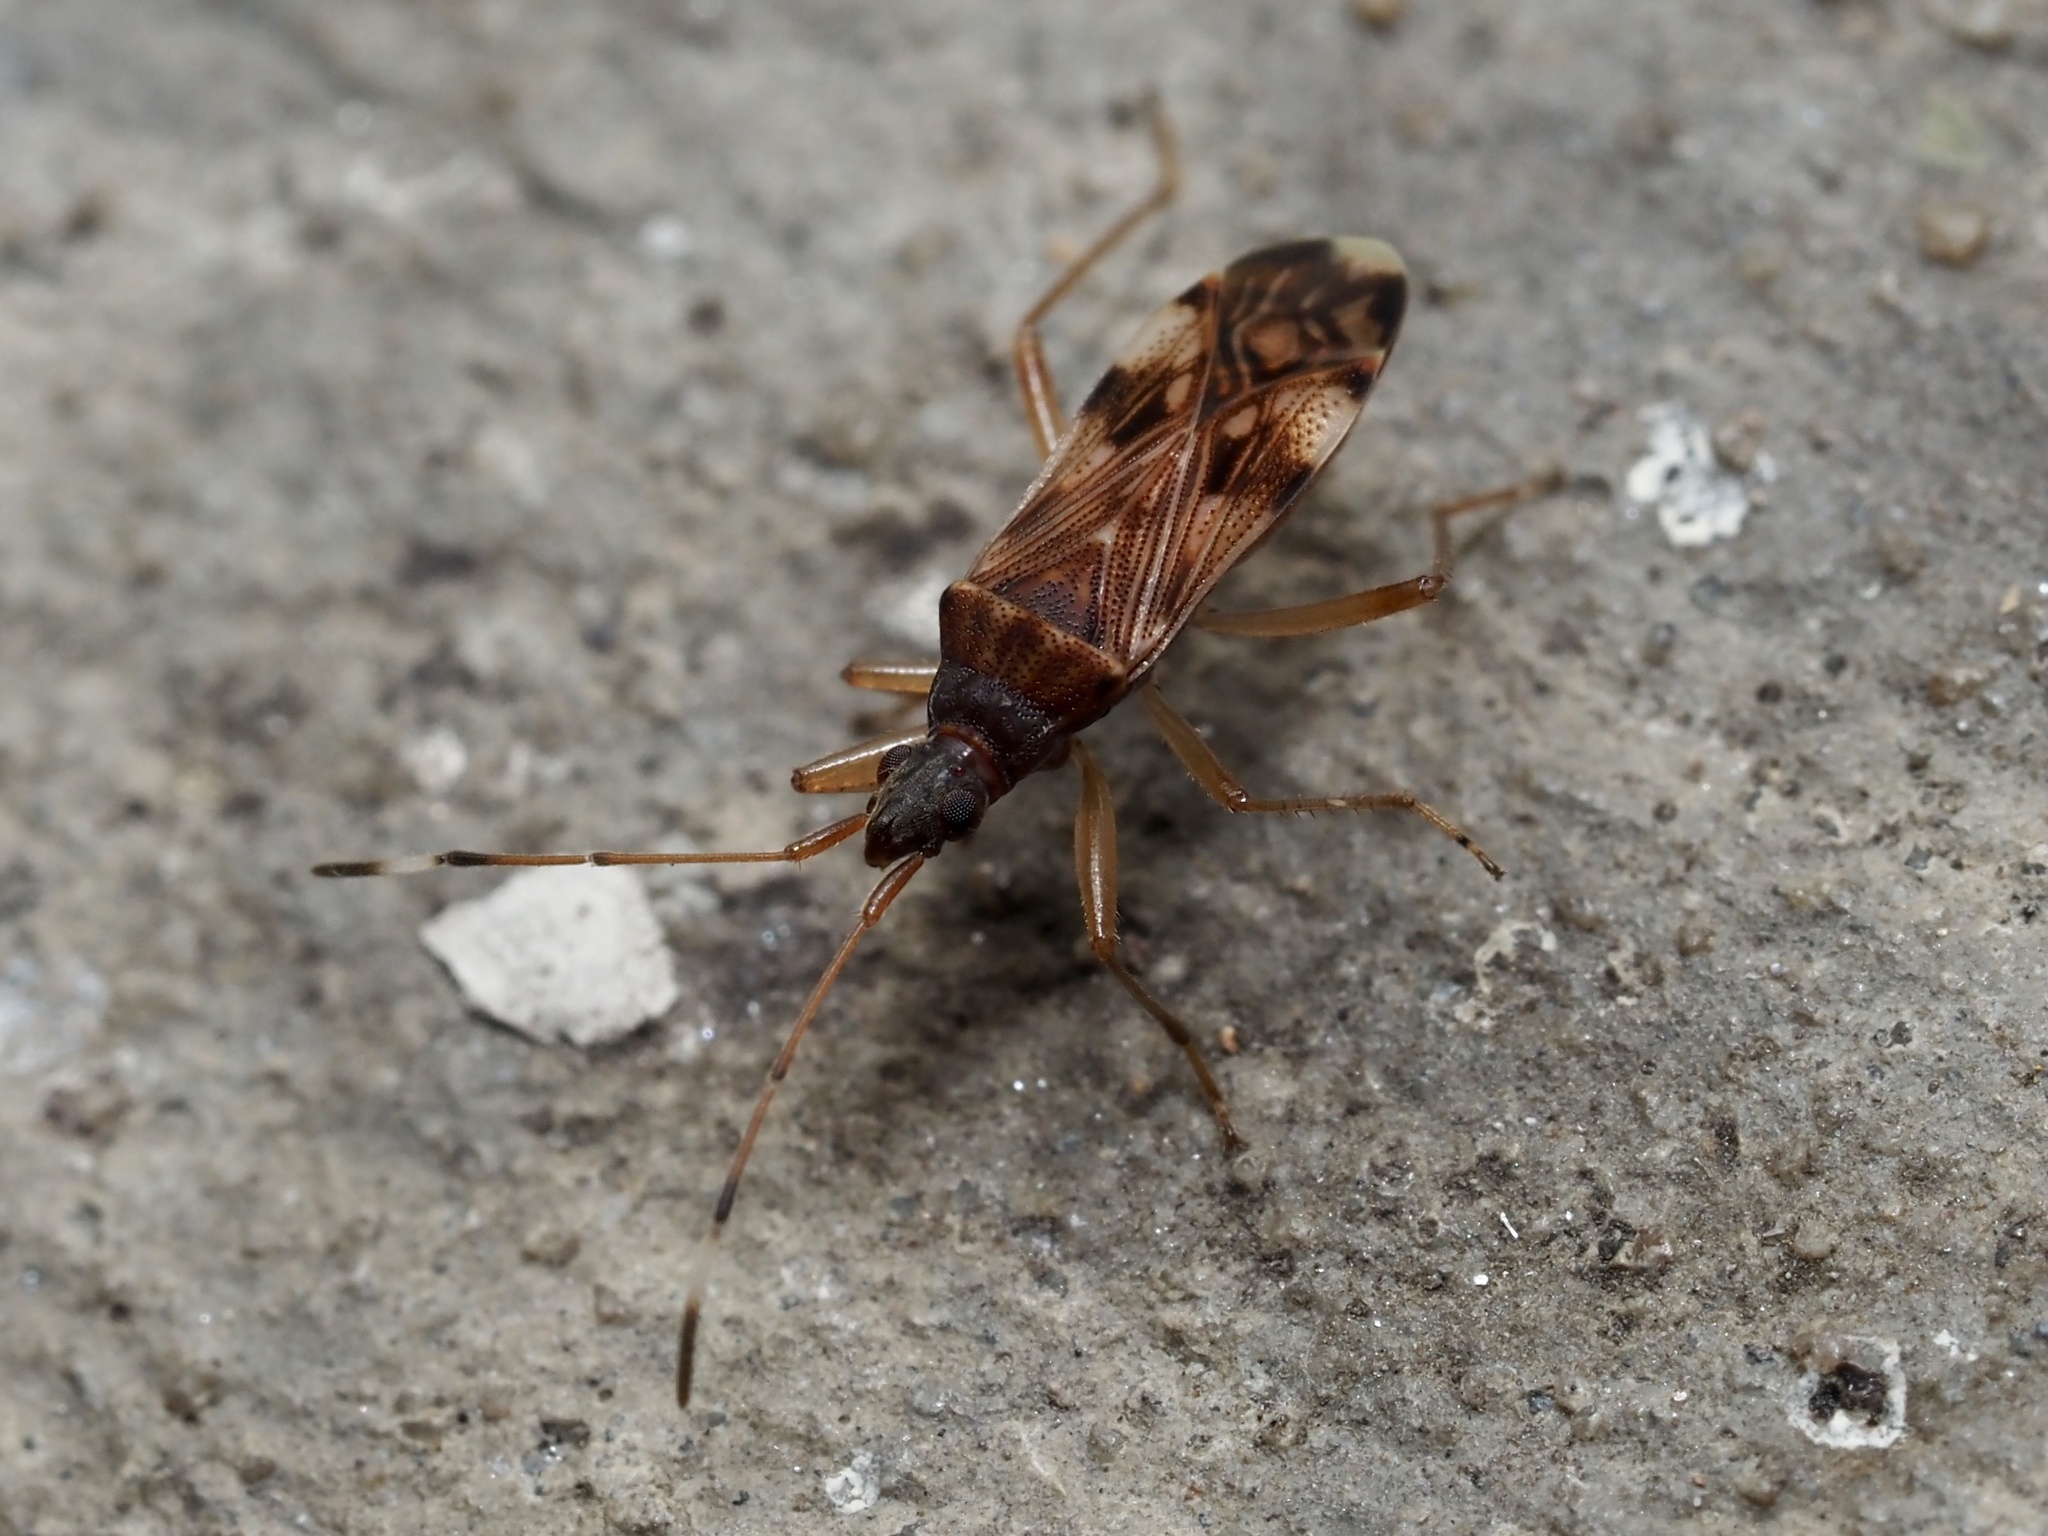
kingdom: Animalia
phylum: Arthropoda
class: Insecta
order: Hemiptera
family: Rhyparochromidae
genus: Ozophora
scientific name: Ozophora picturata
